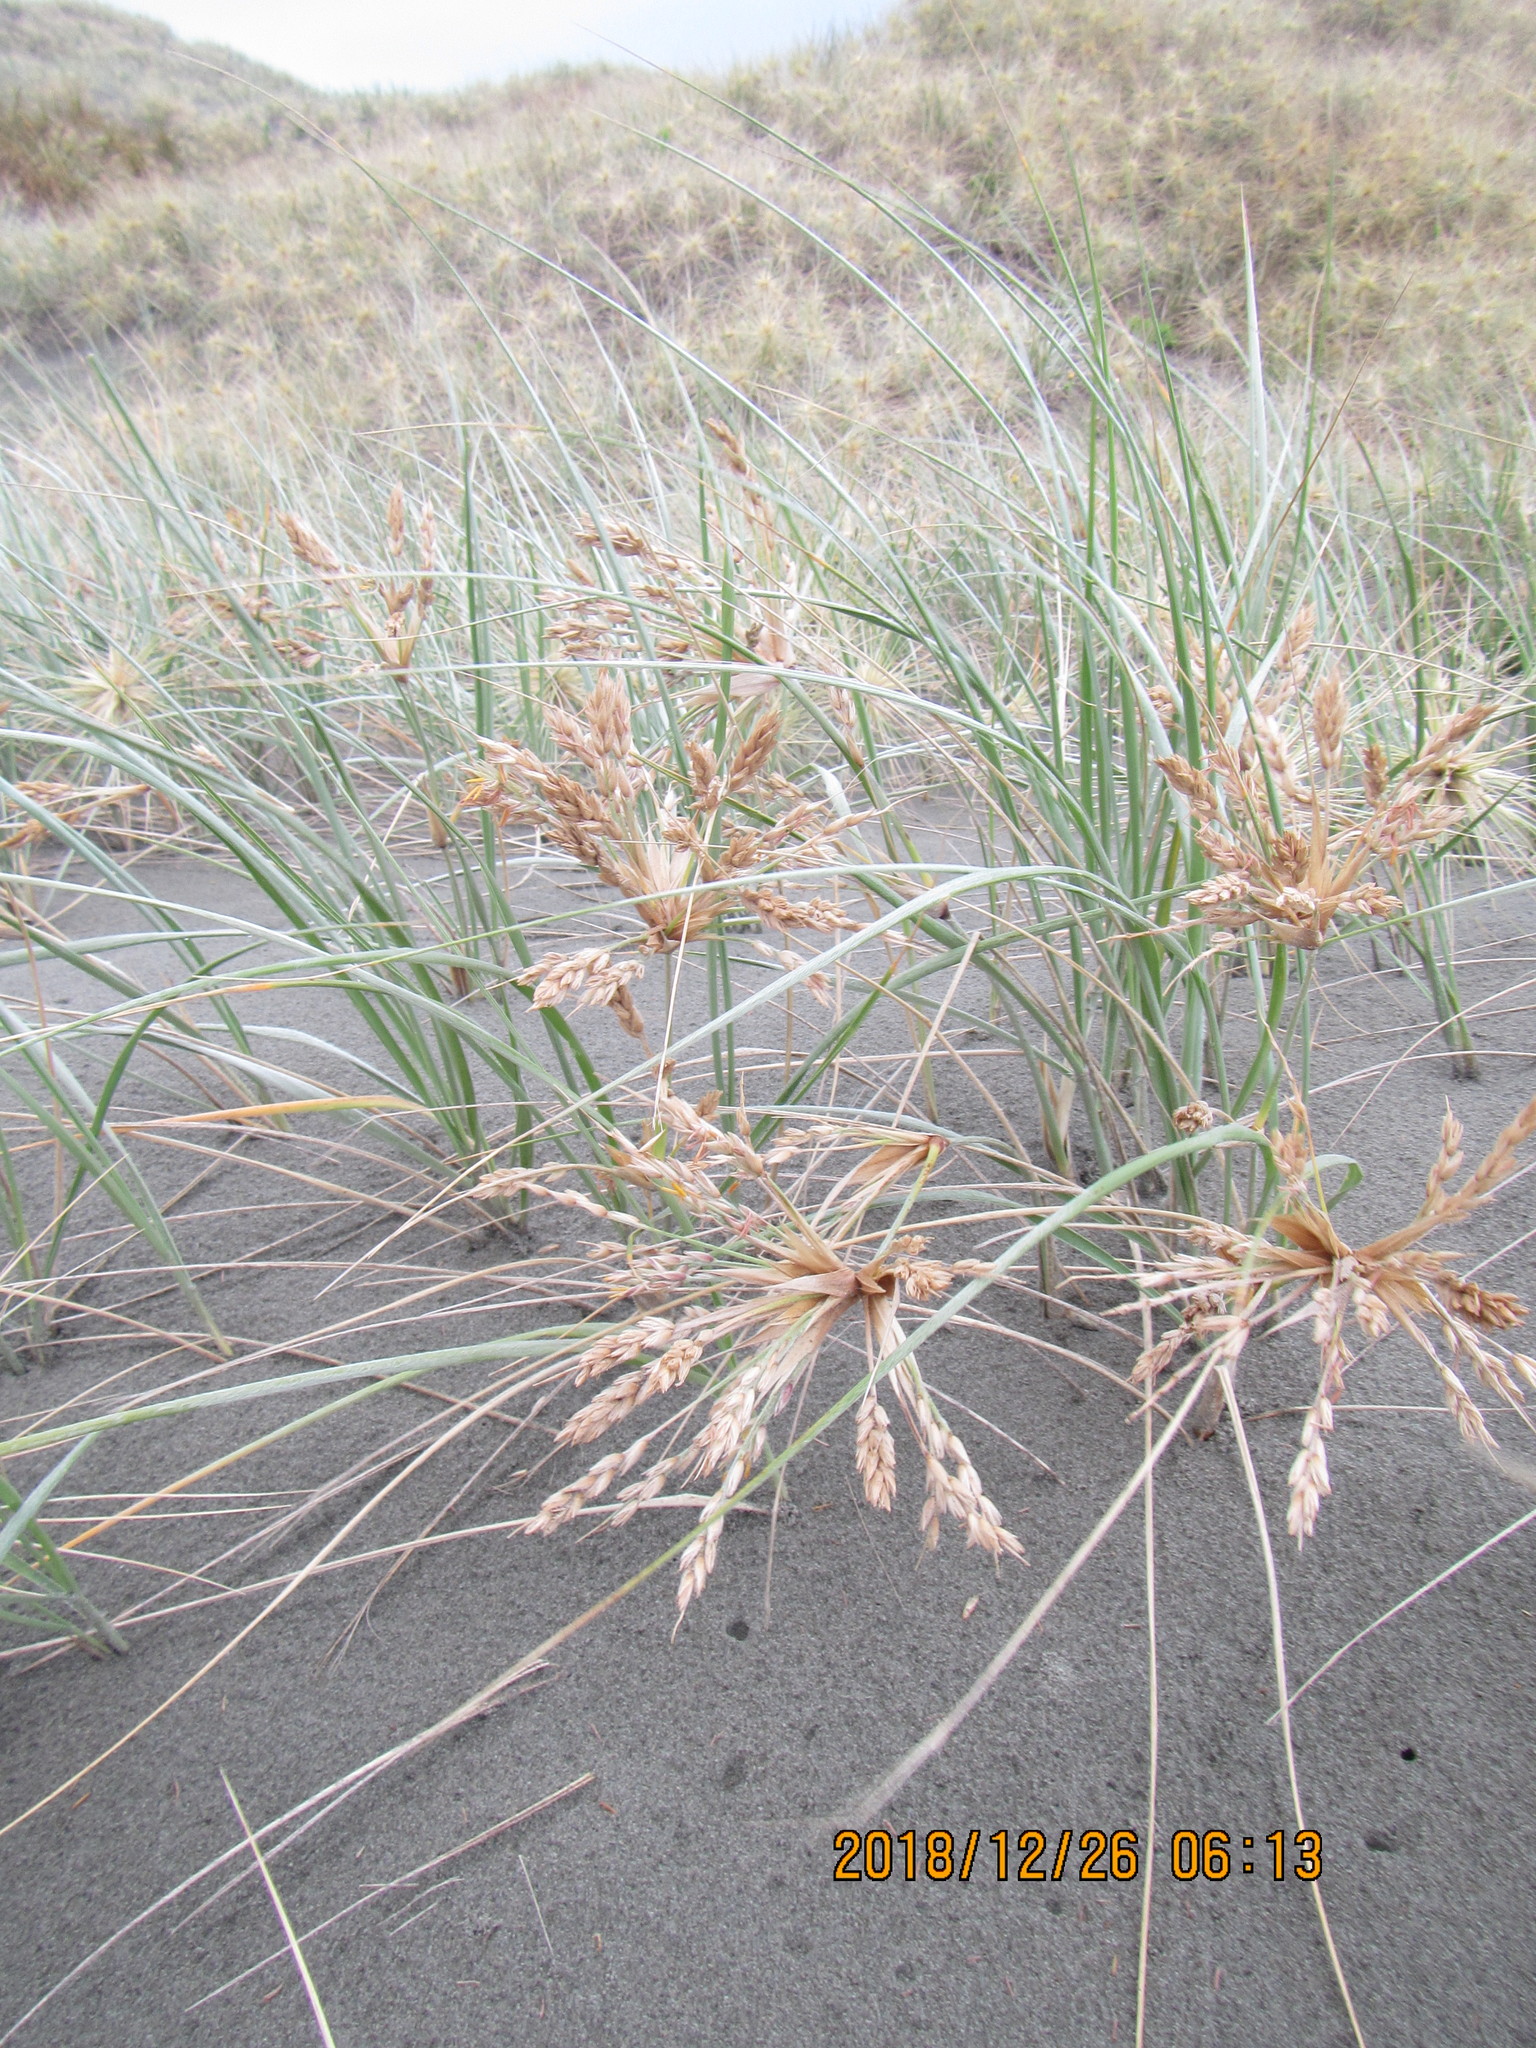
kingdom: Plantae
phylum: Tracheophyta
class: Liliopsida
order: Poales
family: Poaceae
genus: Spinifex
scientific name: Spinifex sericeus
